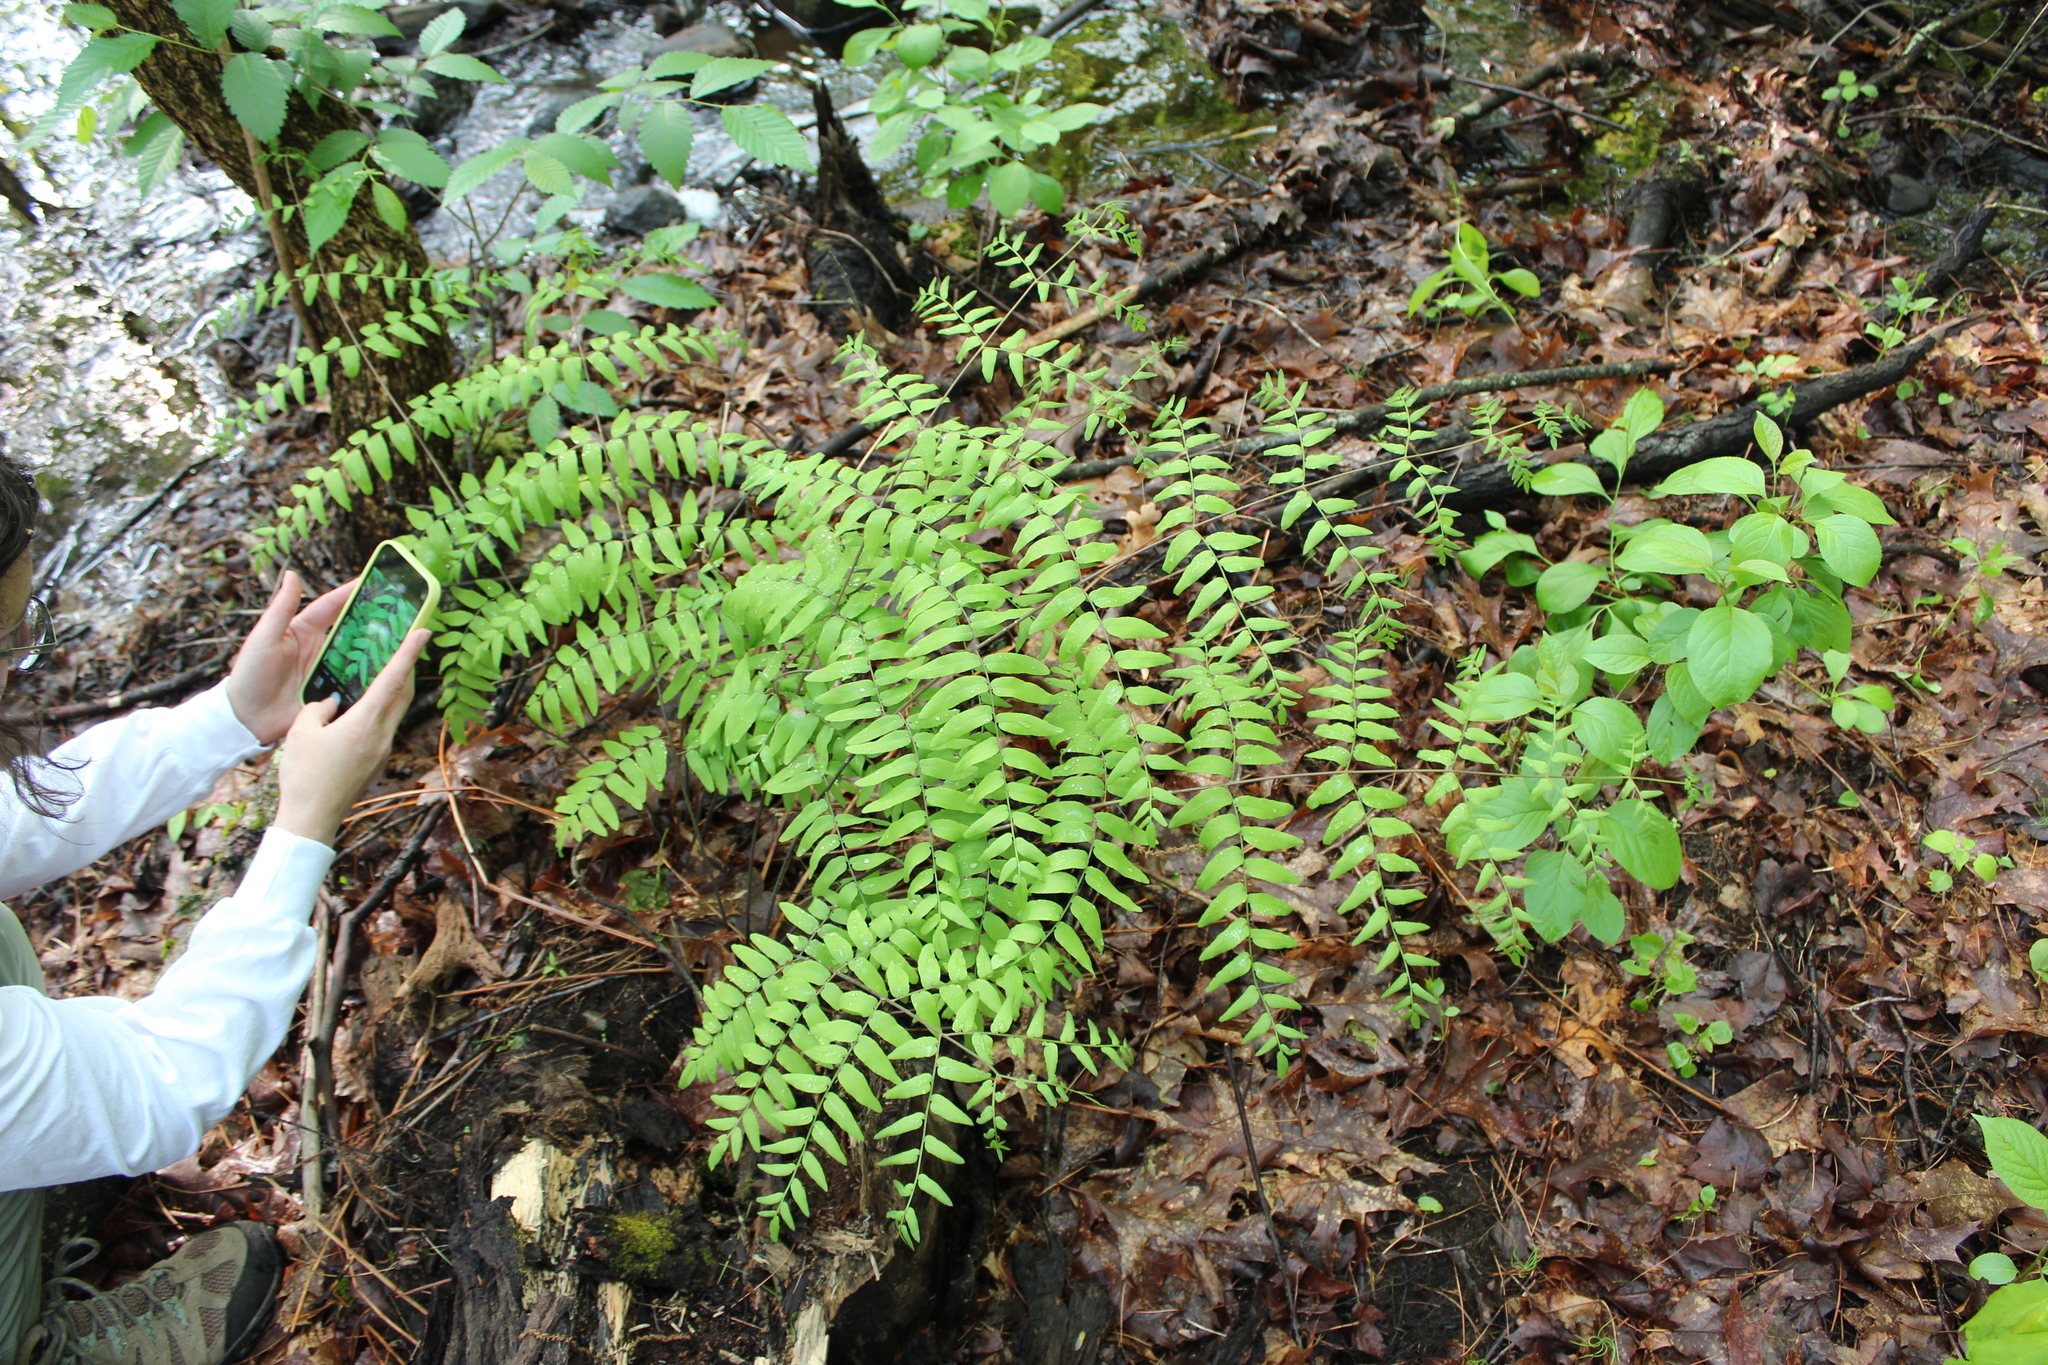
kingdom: Plantae
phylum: Tracheophyta
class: Polypodiopsida
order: Osmundales
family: Osmundaceae
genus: Osmunda
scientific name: Osmunda spectabilis
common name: American royal fern
